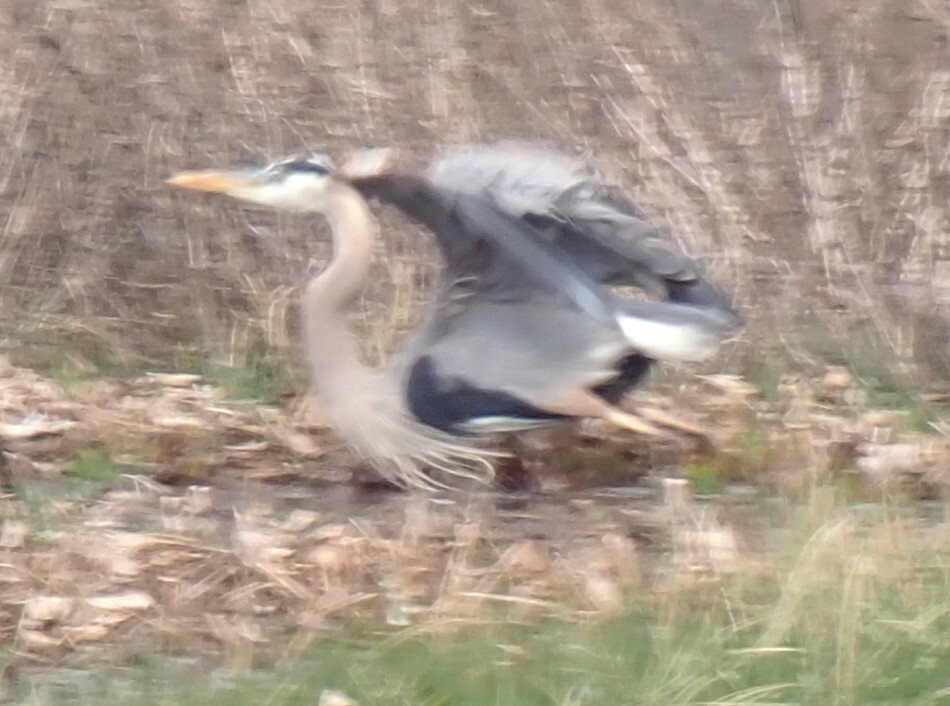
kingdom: Animalia
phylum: Chordata
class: Aves
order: Pelecaniformes
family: Ardeidae
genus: Ardea
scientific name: Ardea herodias
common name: Great blue heron
